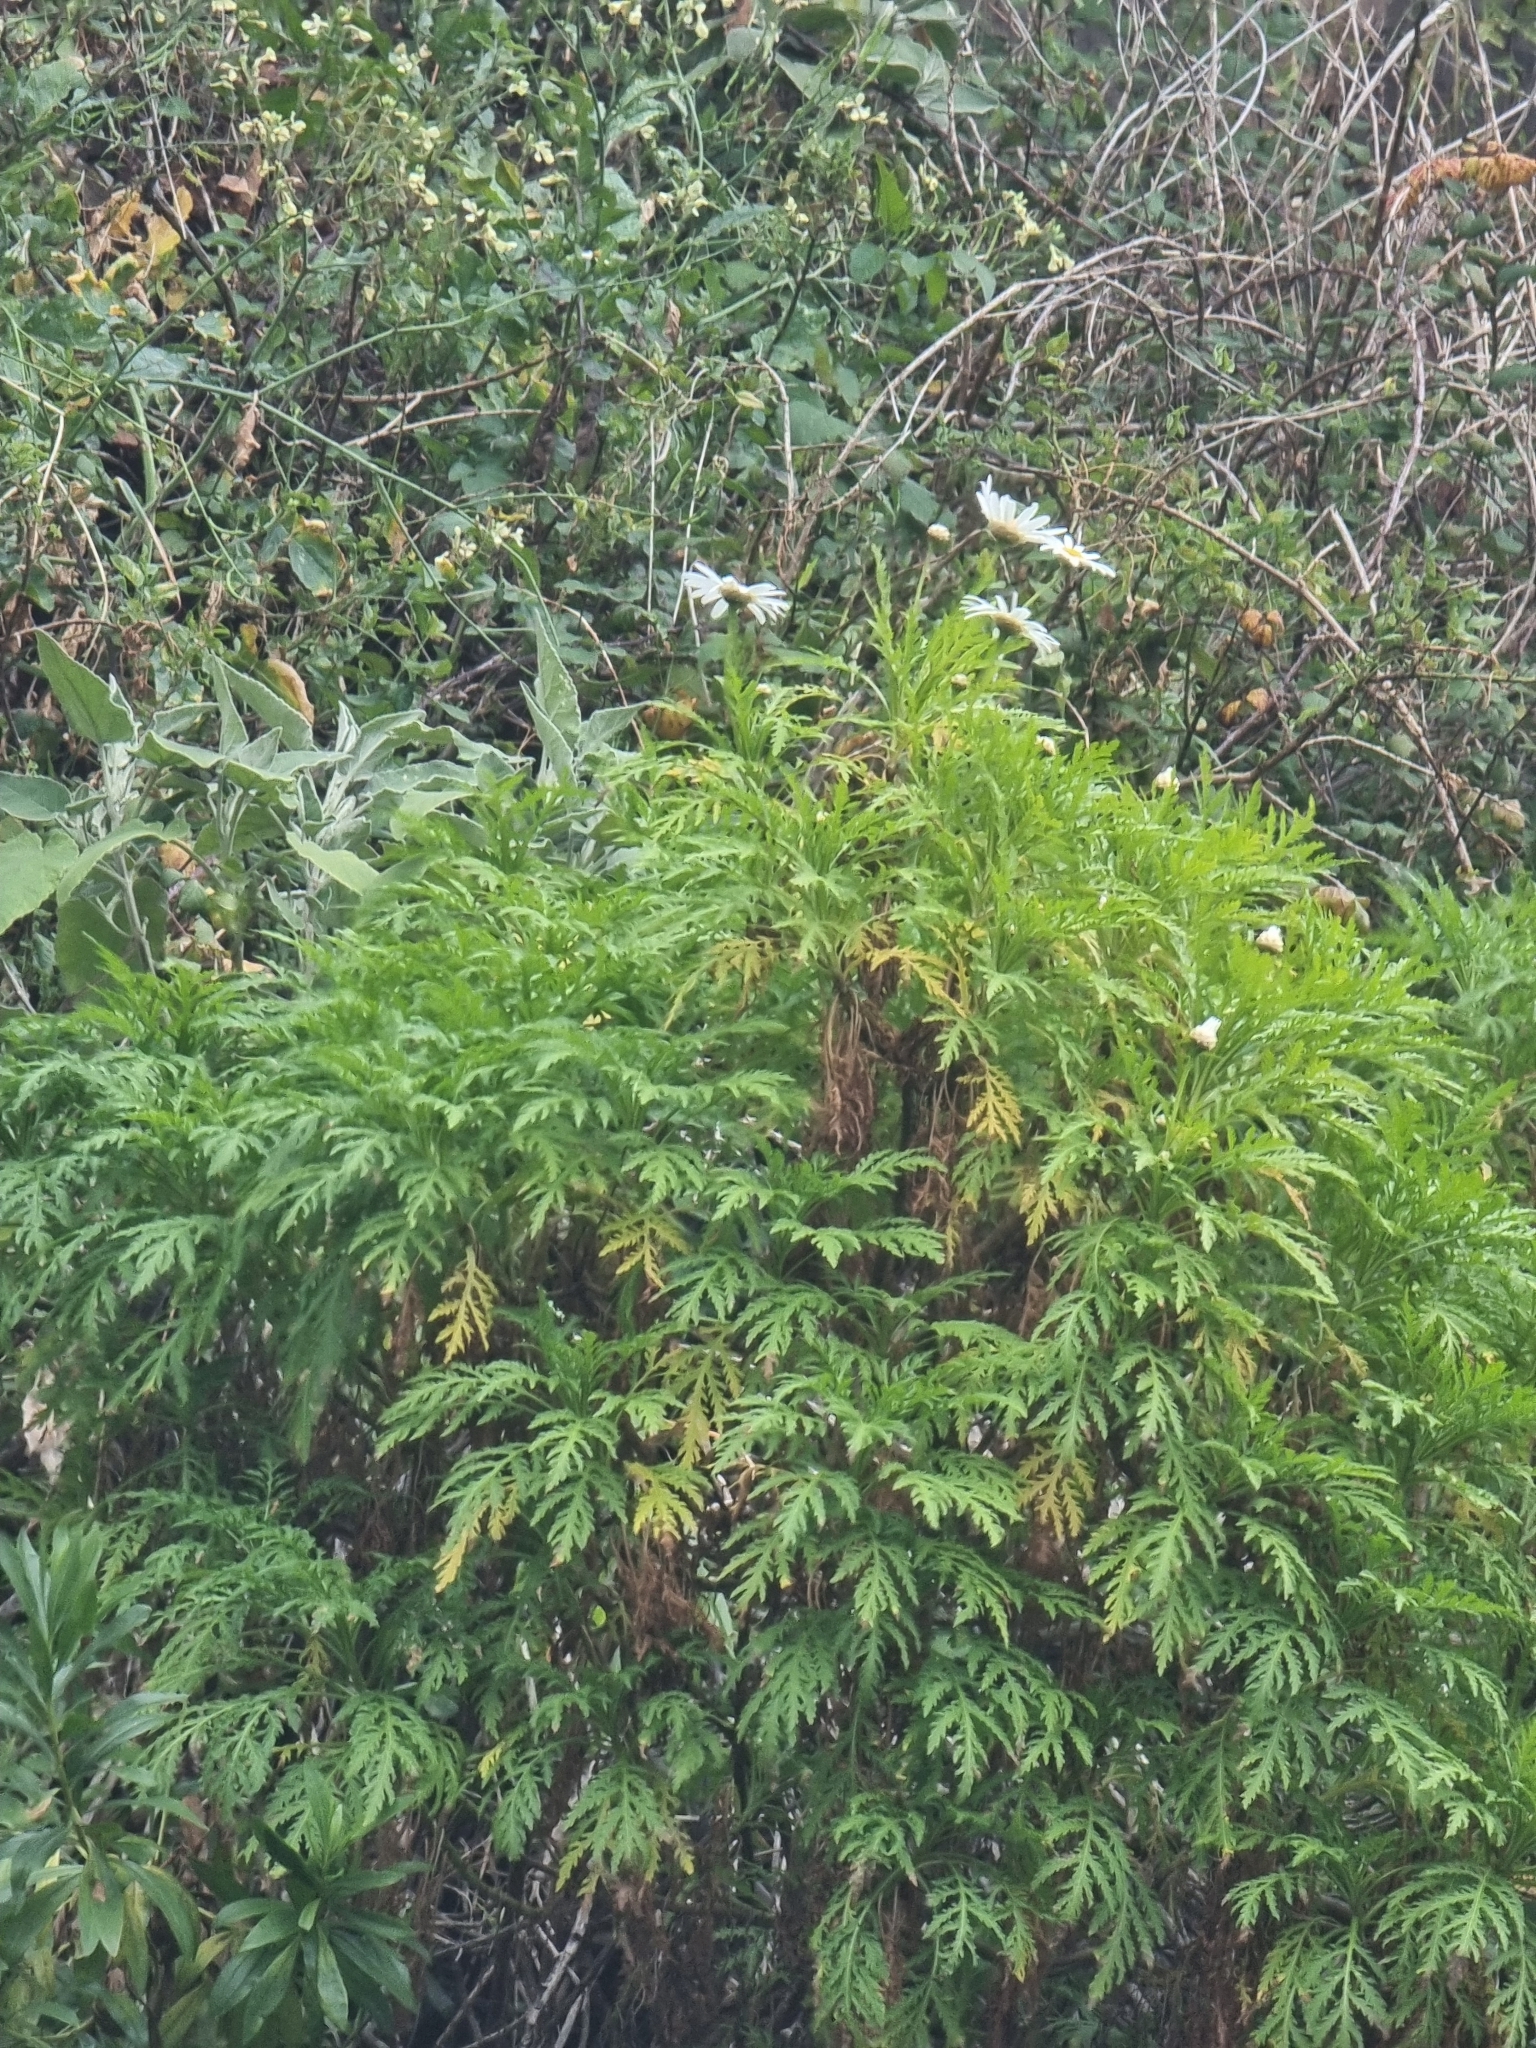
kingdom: Plantae
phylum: Tracheophyta
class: Magnoliopsida
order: Asterales
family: Asteraceae
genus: Argyranthemum
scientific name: Argyranthemum dissectum
